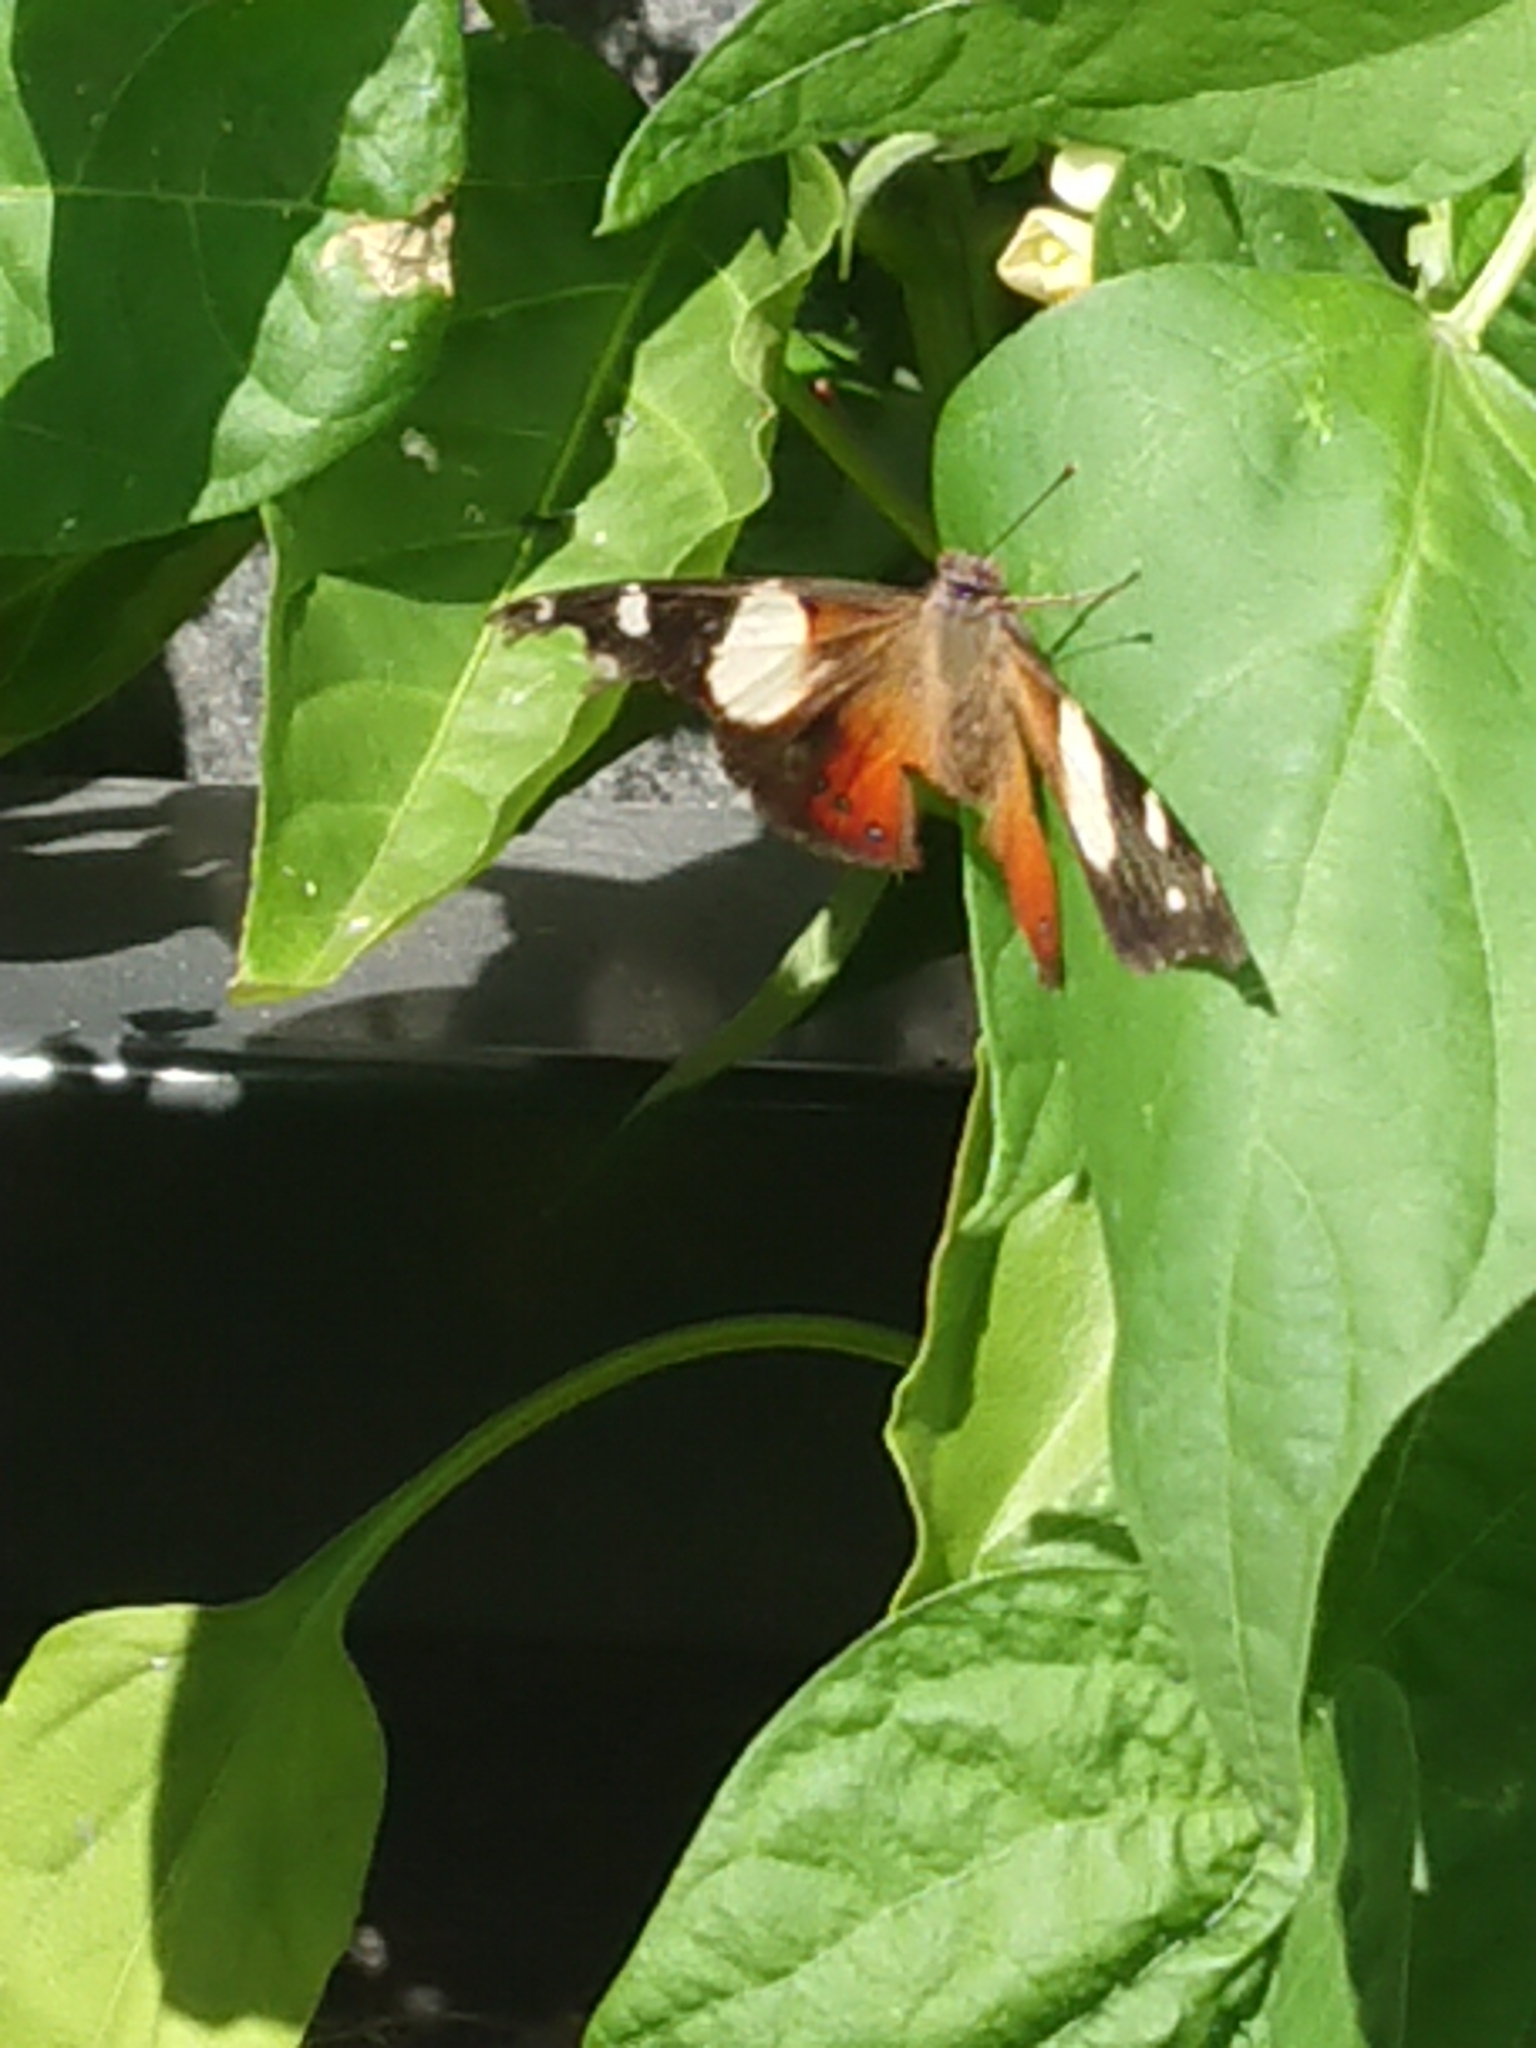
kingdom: Animalia
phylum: Arthropoda
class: Insecta
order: Lepidoptera
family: Nymphalidae
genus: Vanessa
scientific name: Vanessa itea
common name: Yellow admiral
